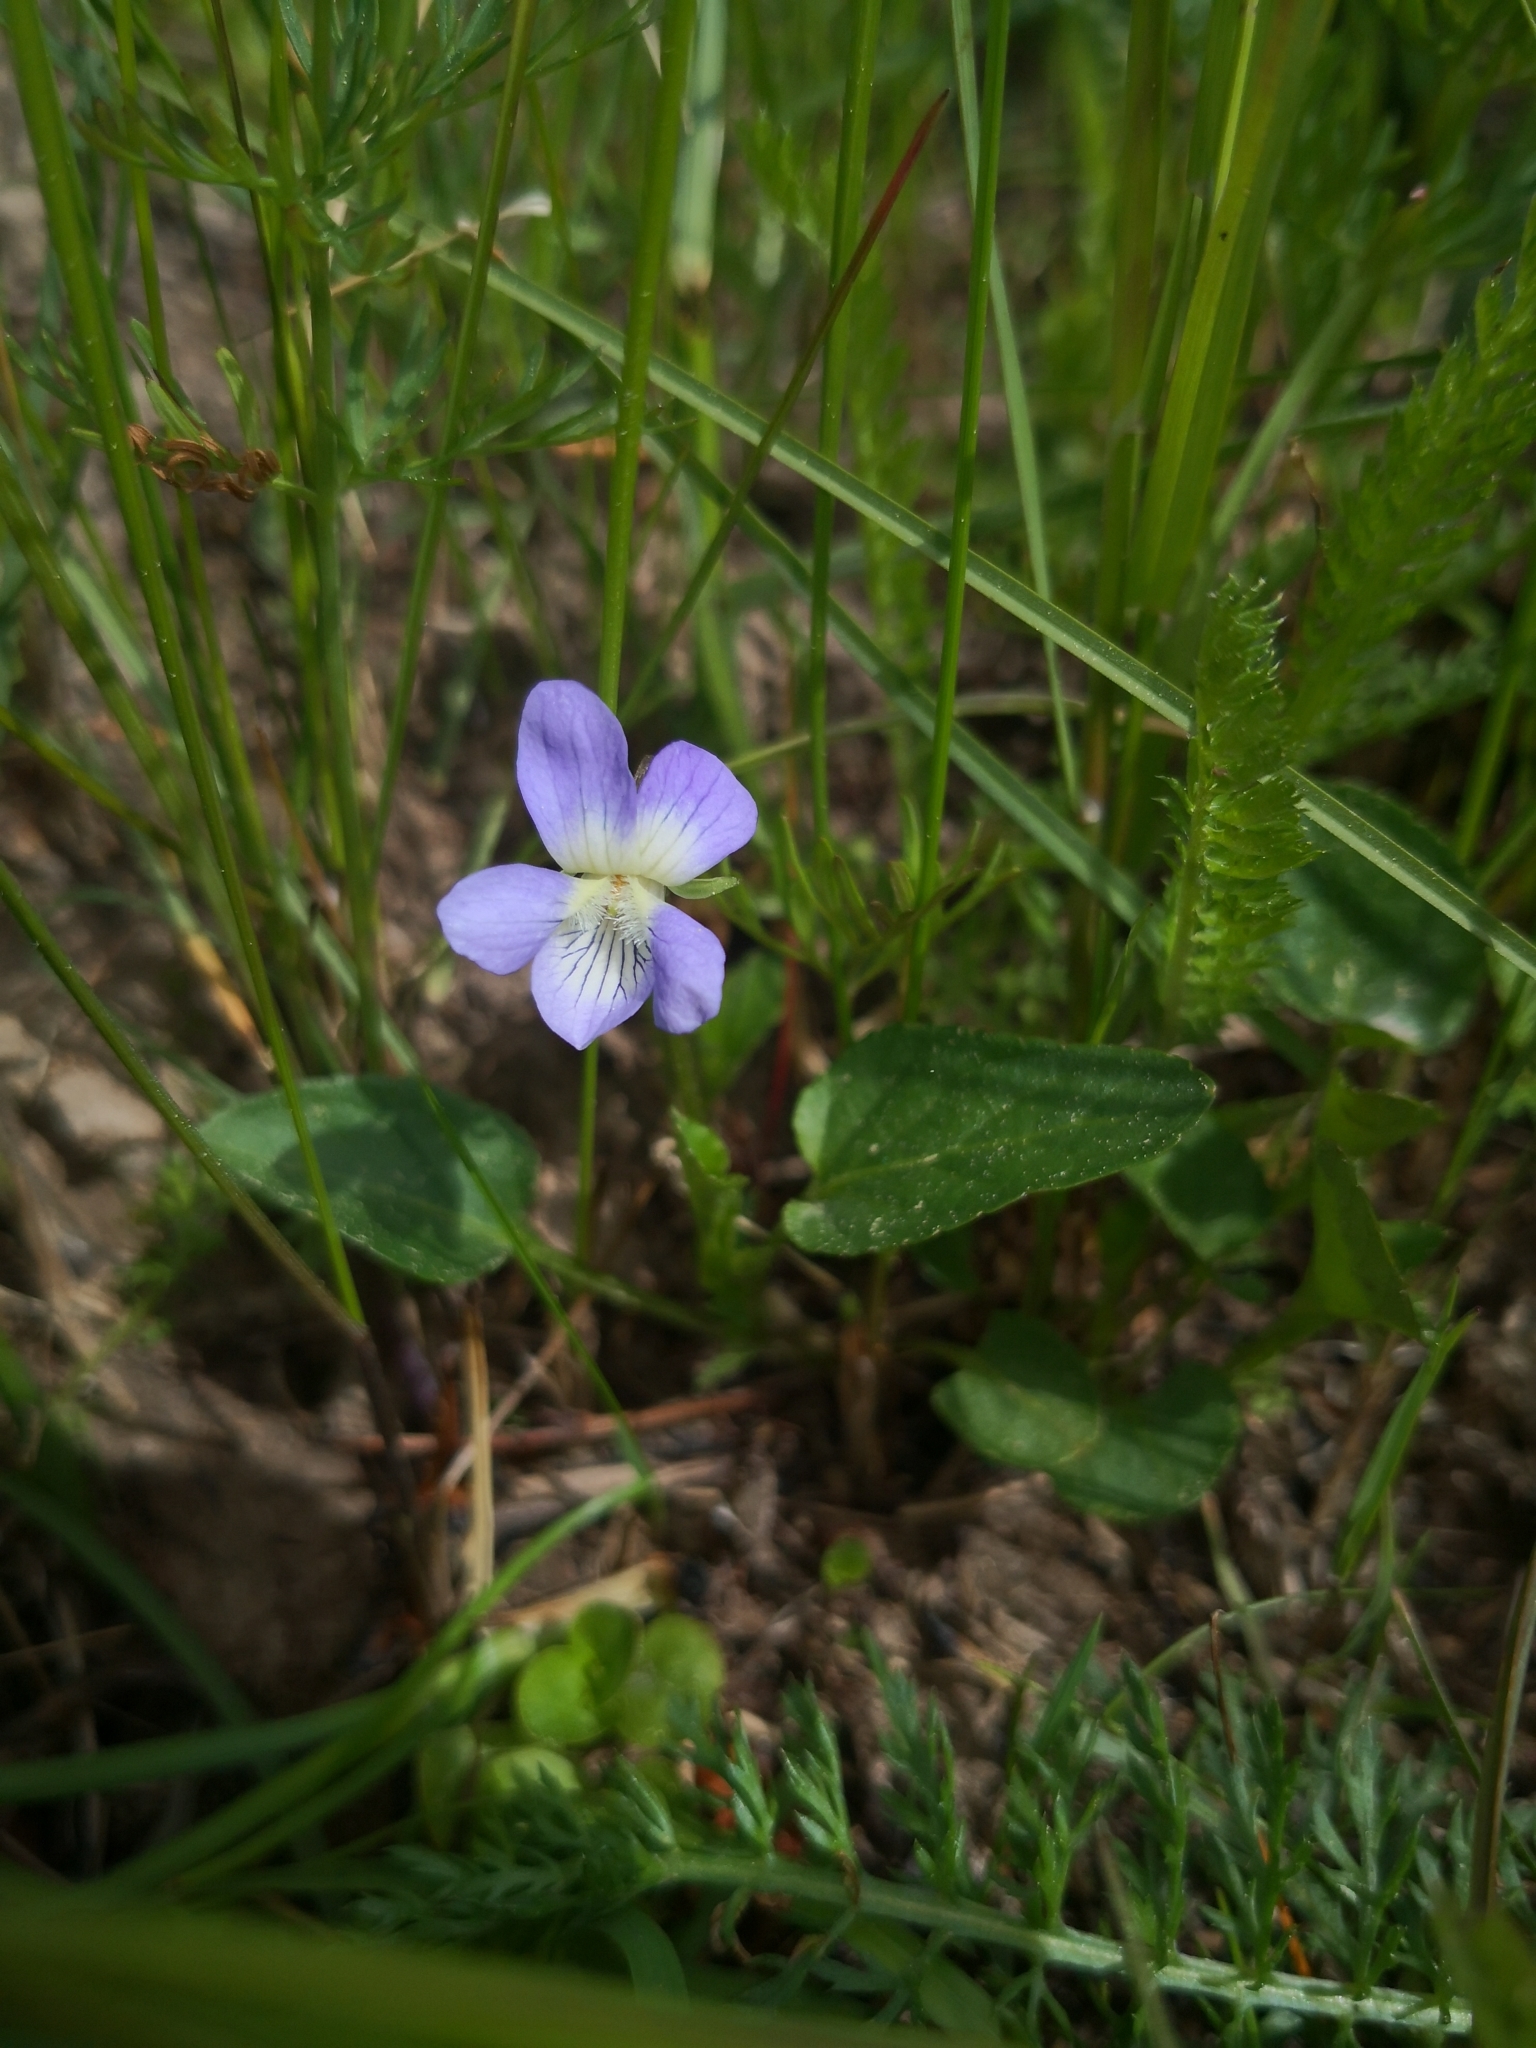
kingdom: Plantae
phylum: Tracheophyta
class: Magnoliopsida
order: Malpighiales
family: Violaceae
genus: Viola
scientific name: Viola canina
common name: Heath dog-violet
